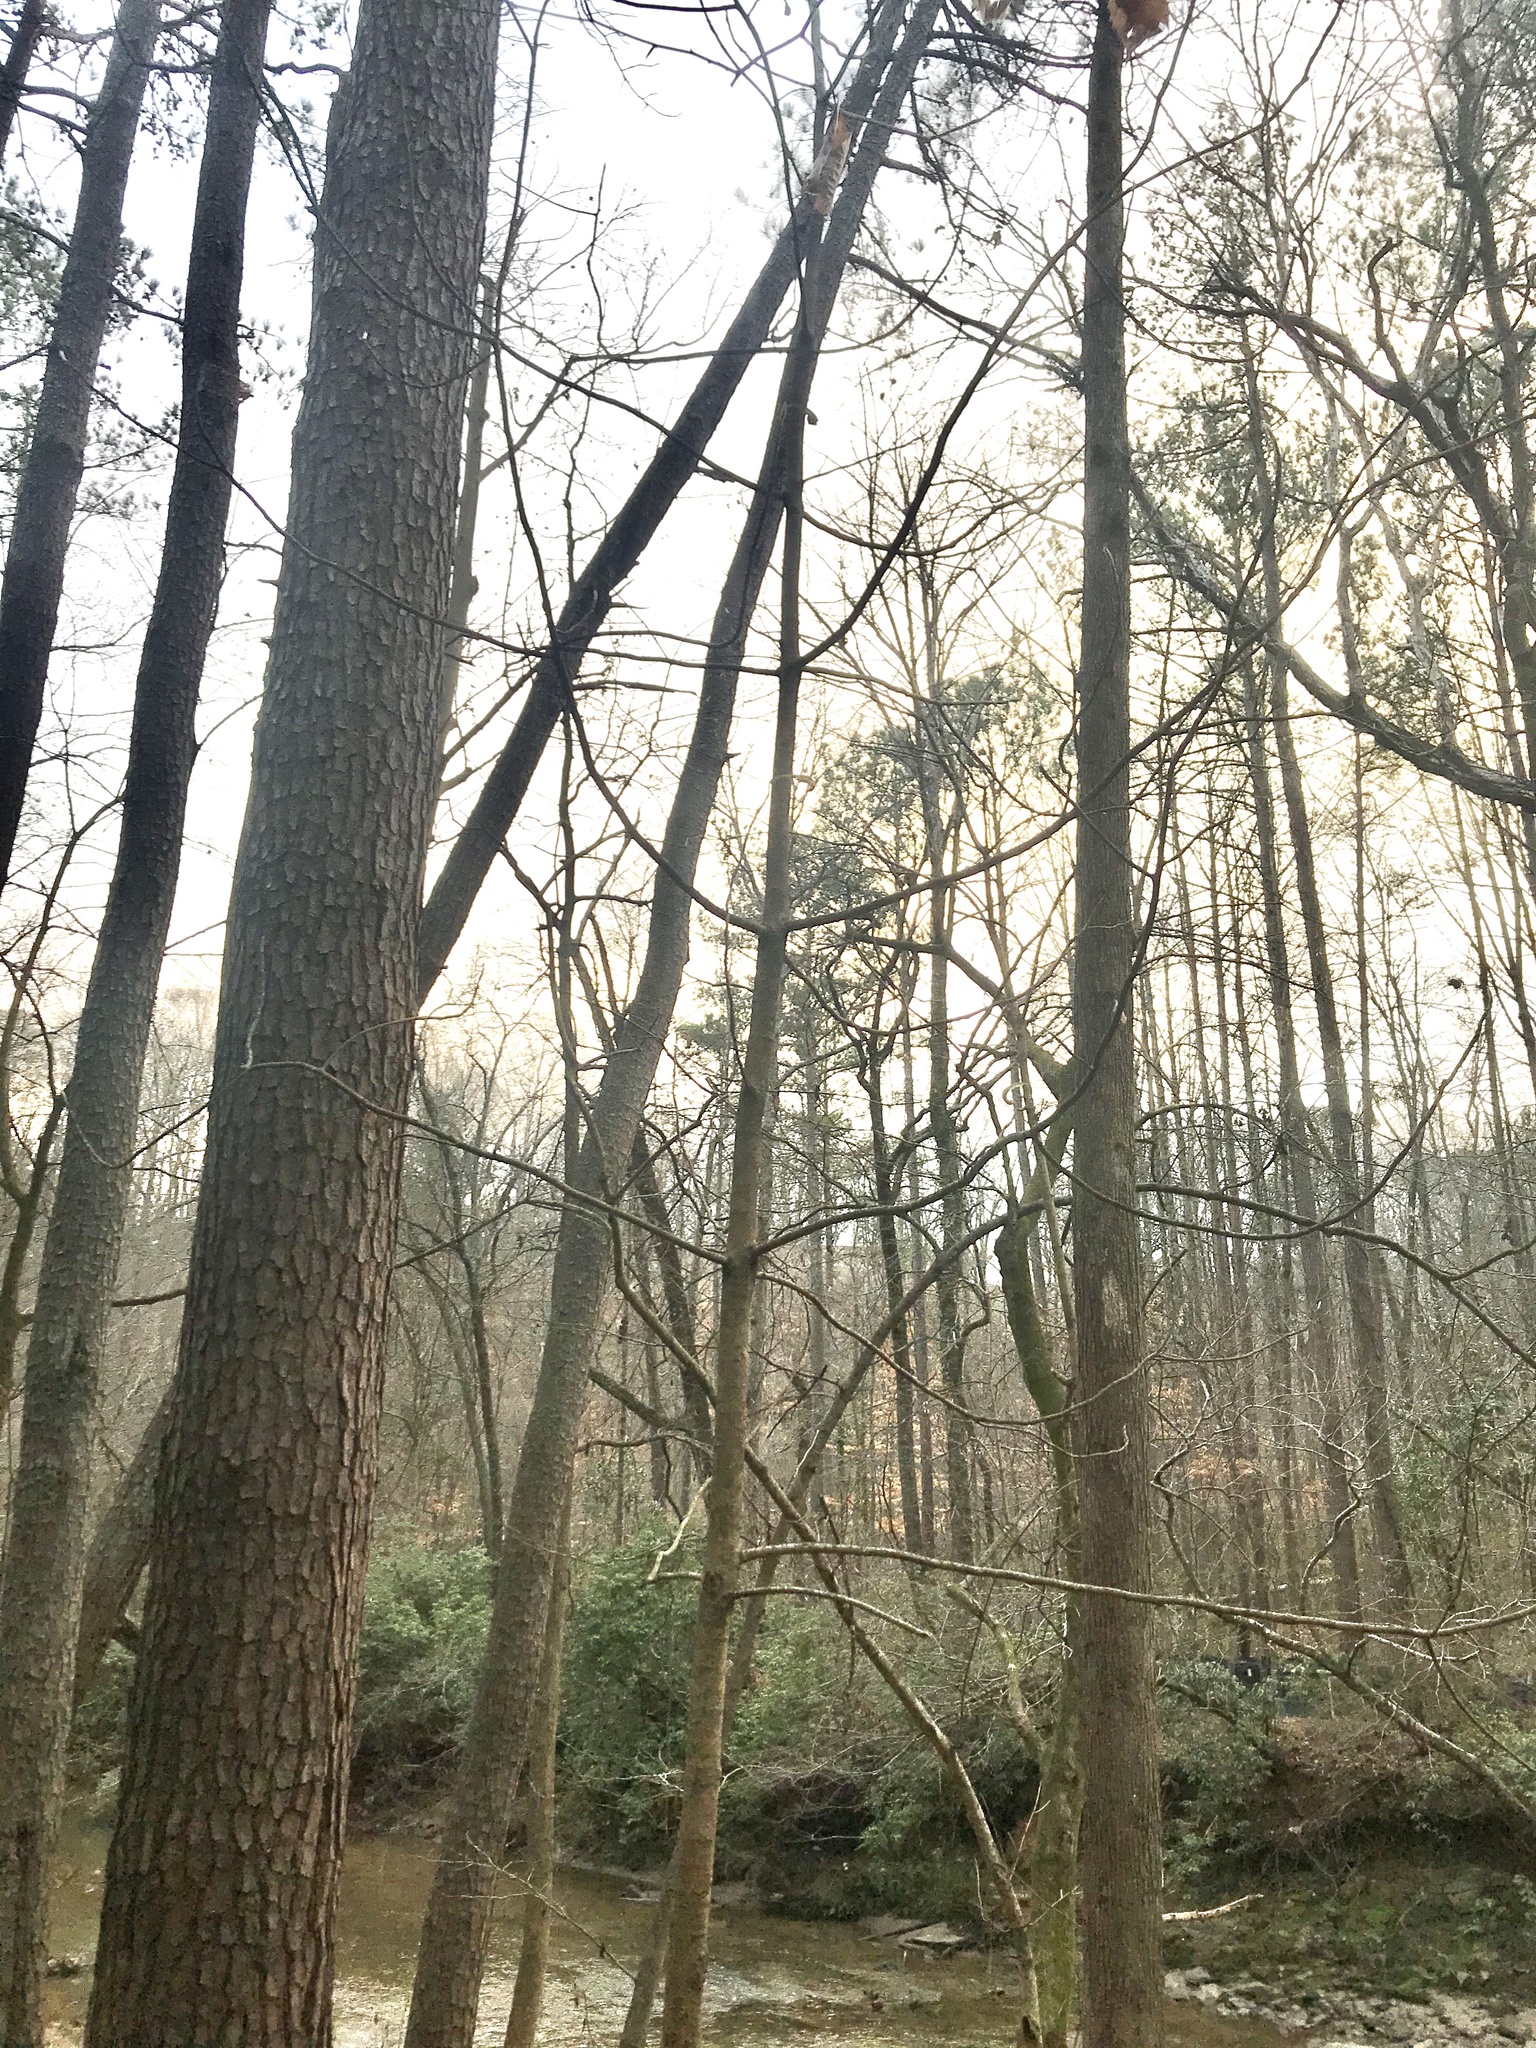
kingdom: Plantae
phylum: Tracheophyta
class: Magnoliopsida
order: Magnoliales
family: Magnoliaceae
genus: Magnolia
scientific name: Magnolia macrophylla
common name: Big-leaf magnolia
